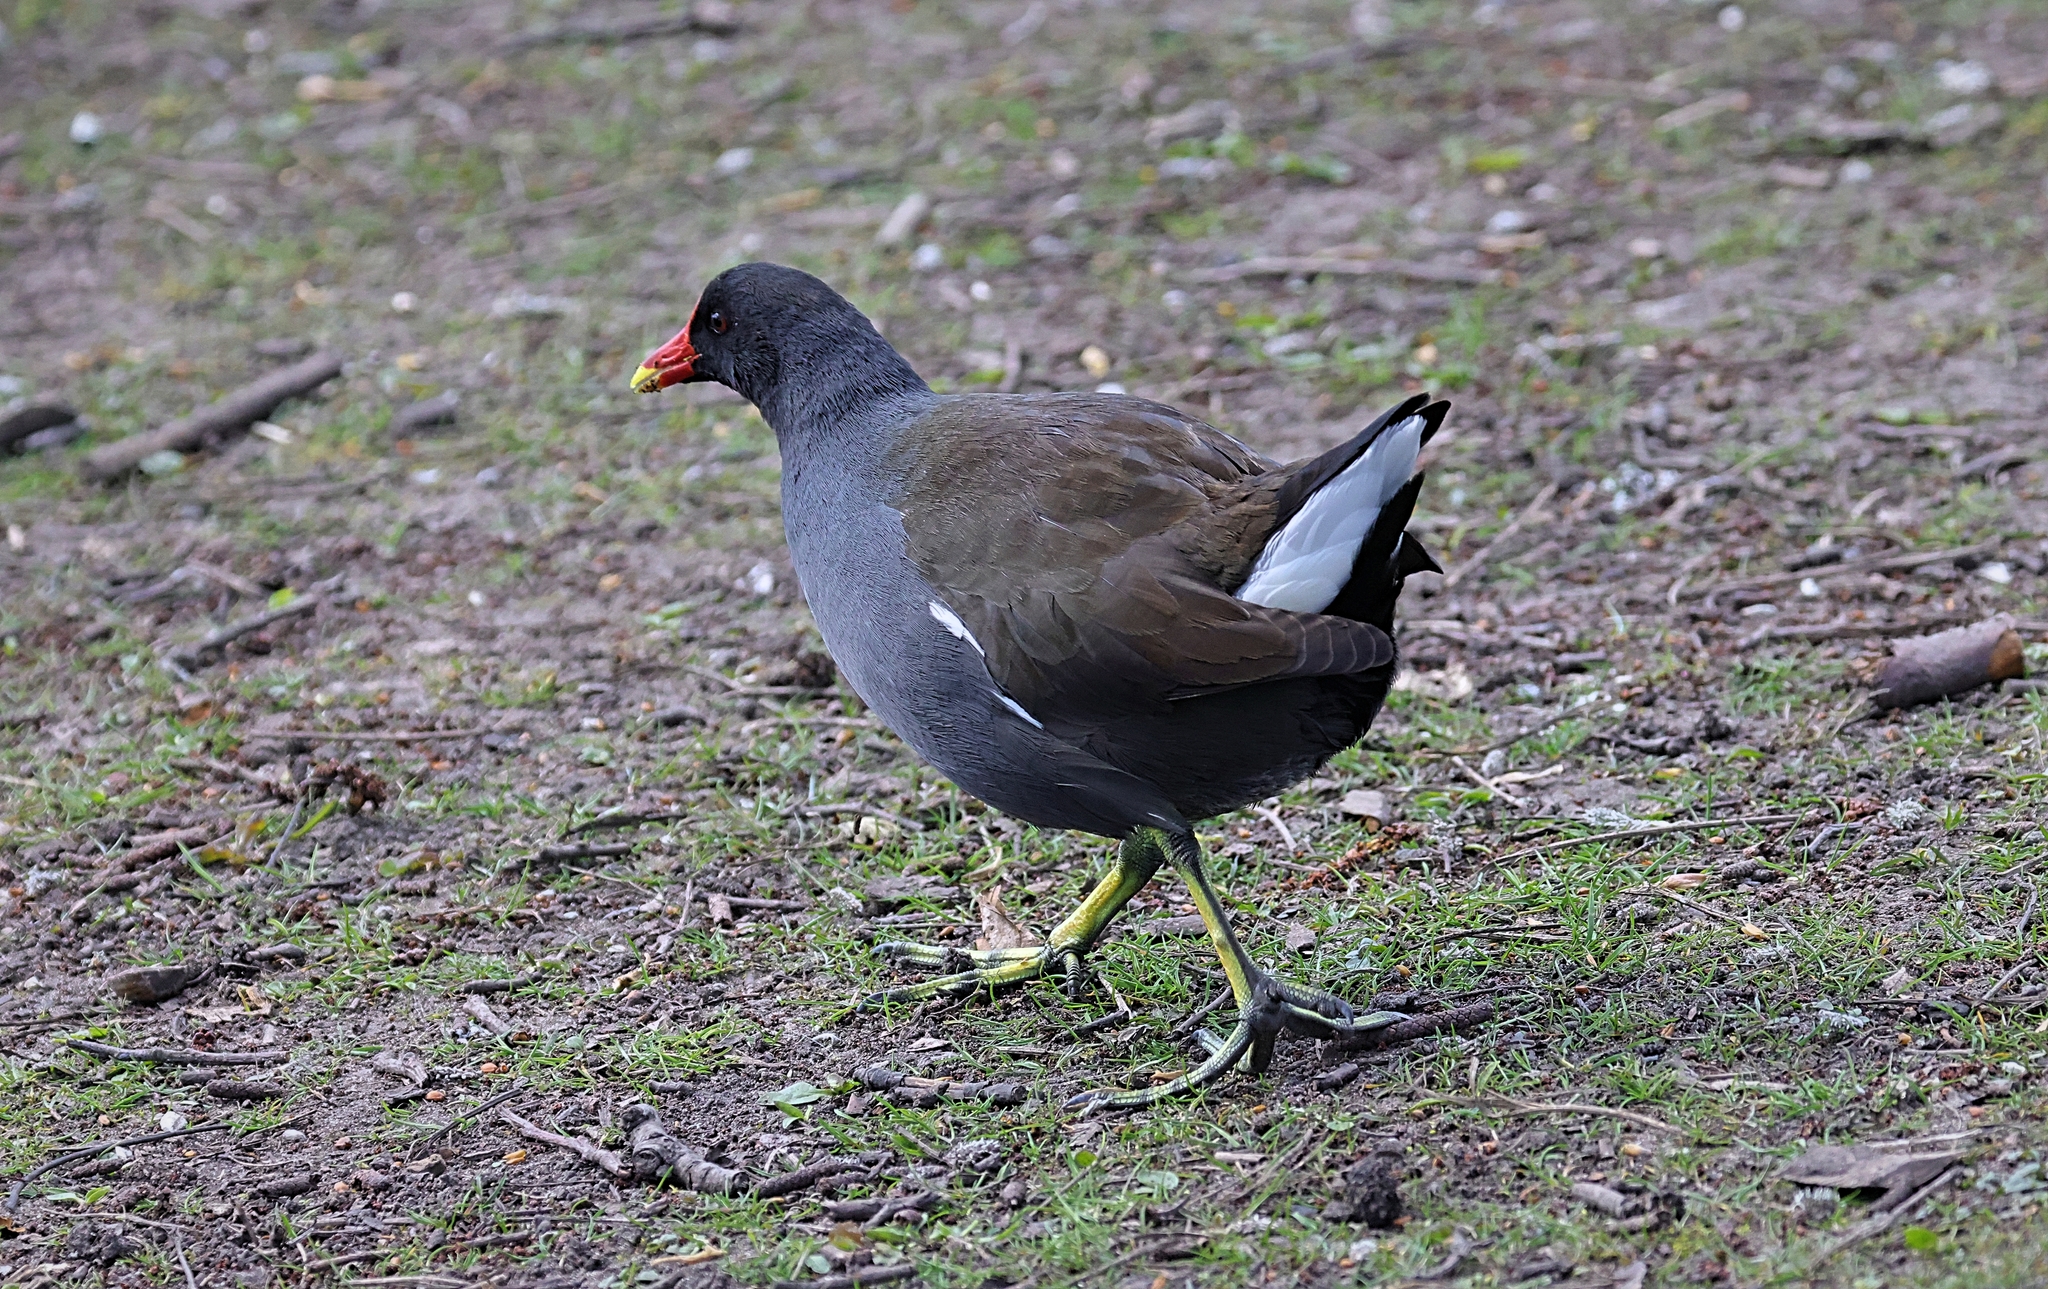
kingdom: Animalia
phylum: Chordata
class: Aves
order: Gruiformes
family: Rallidae
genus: Gallinula
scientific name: Gallinula chloropus
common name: Common moorhen
